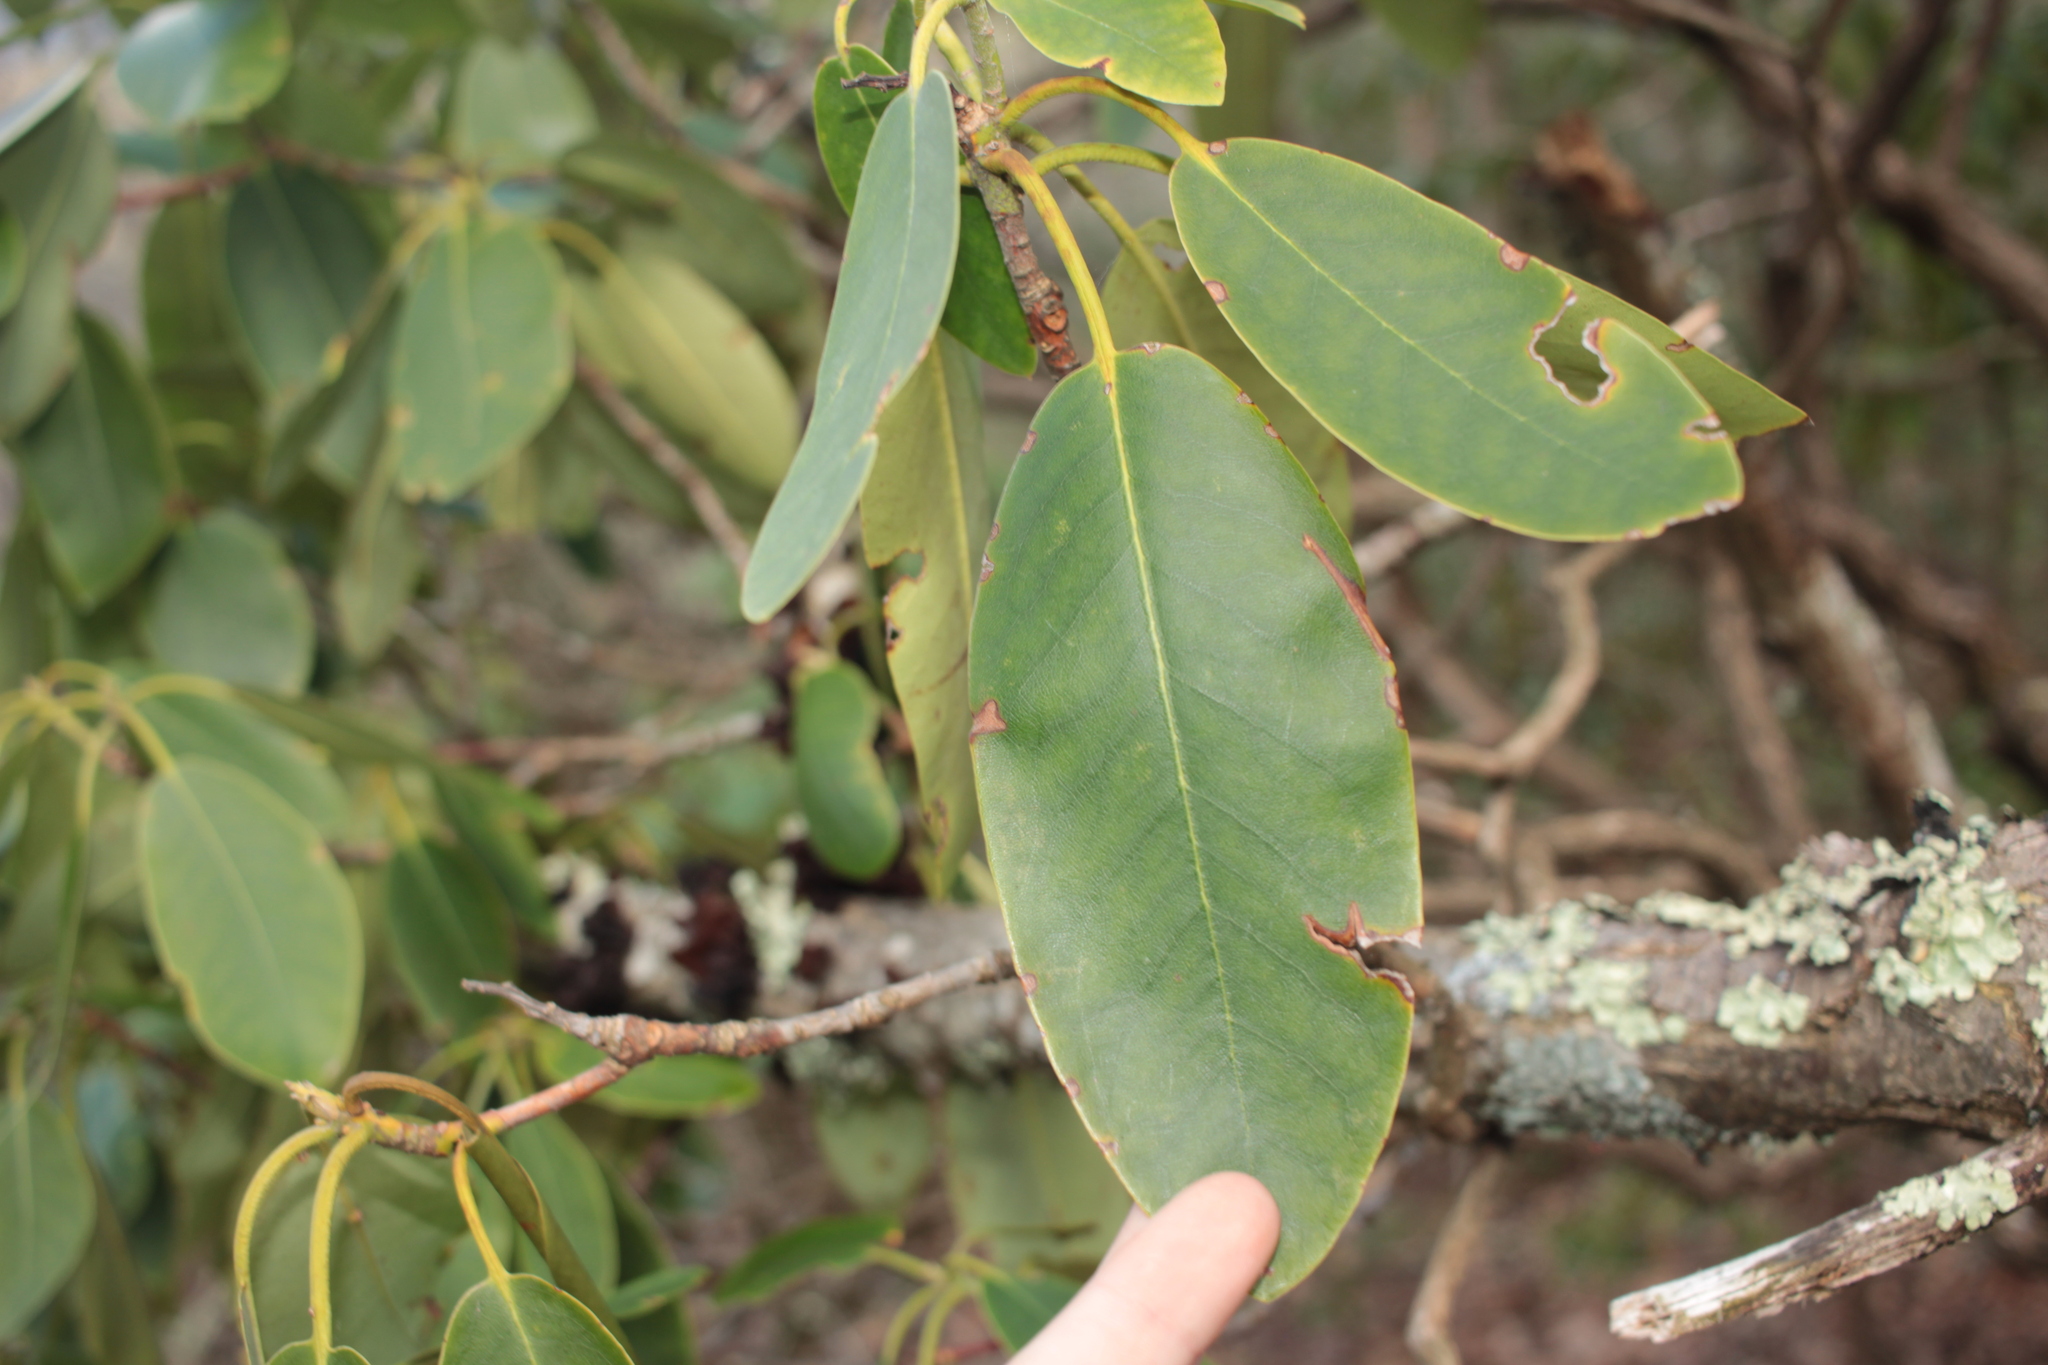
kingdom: Plantae
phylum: Tracheophyta
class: Magnoliopsida
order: Ericales
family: Ericaceae
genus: Rhododendron
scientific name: Rhododendron catawbiense
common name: Catawba rhododendron
